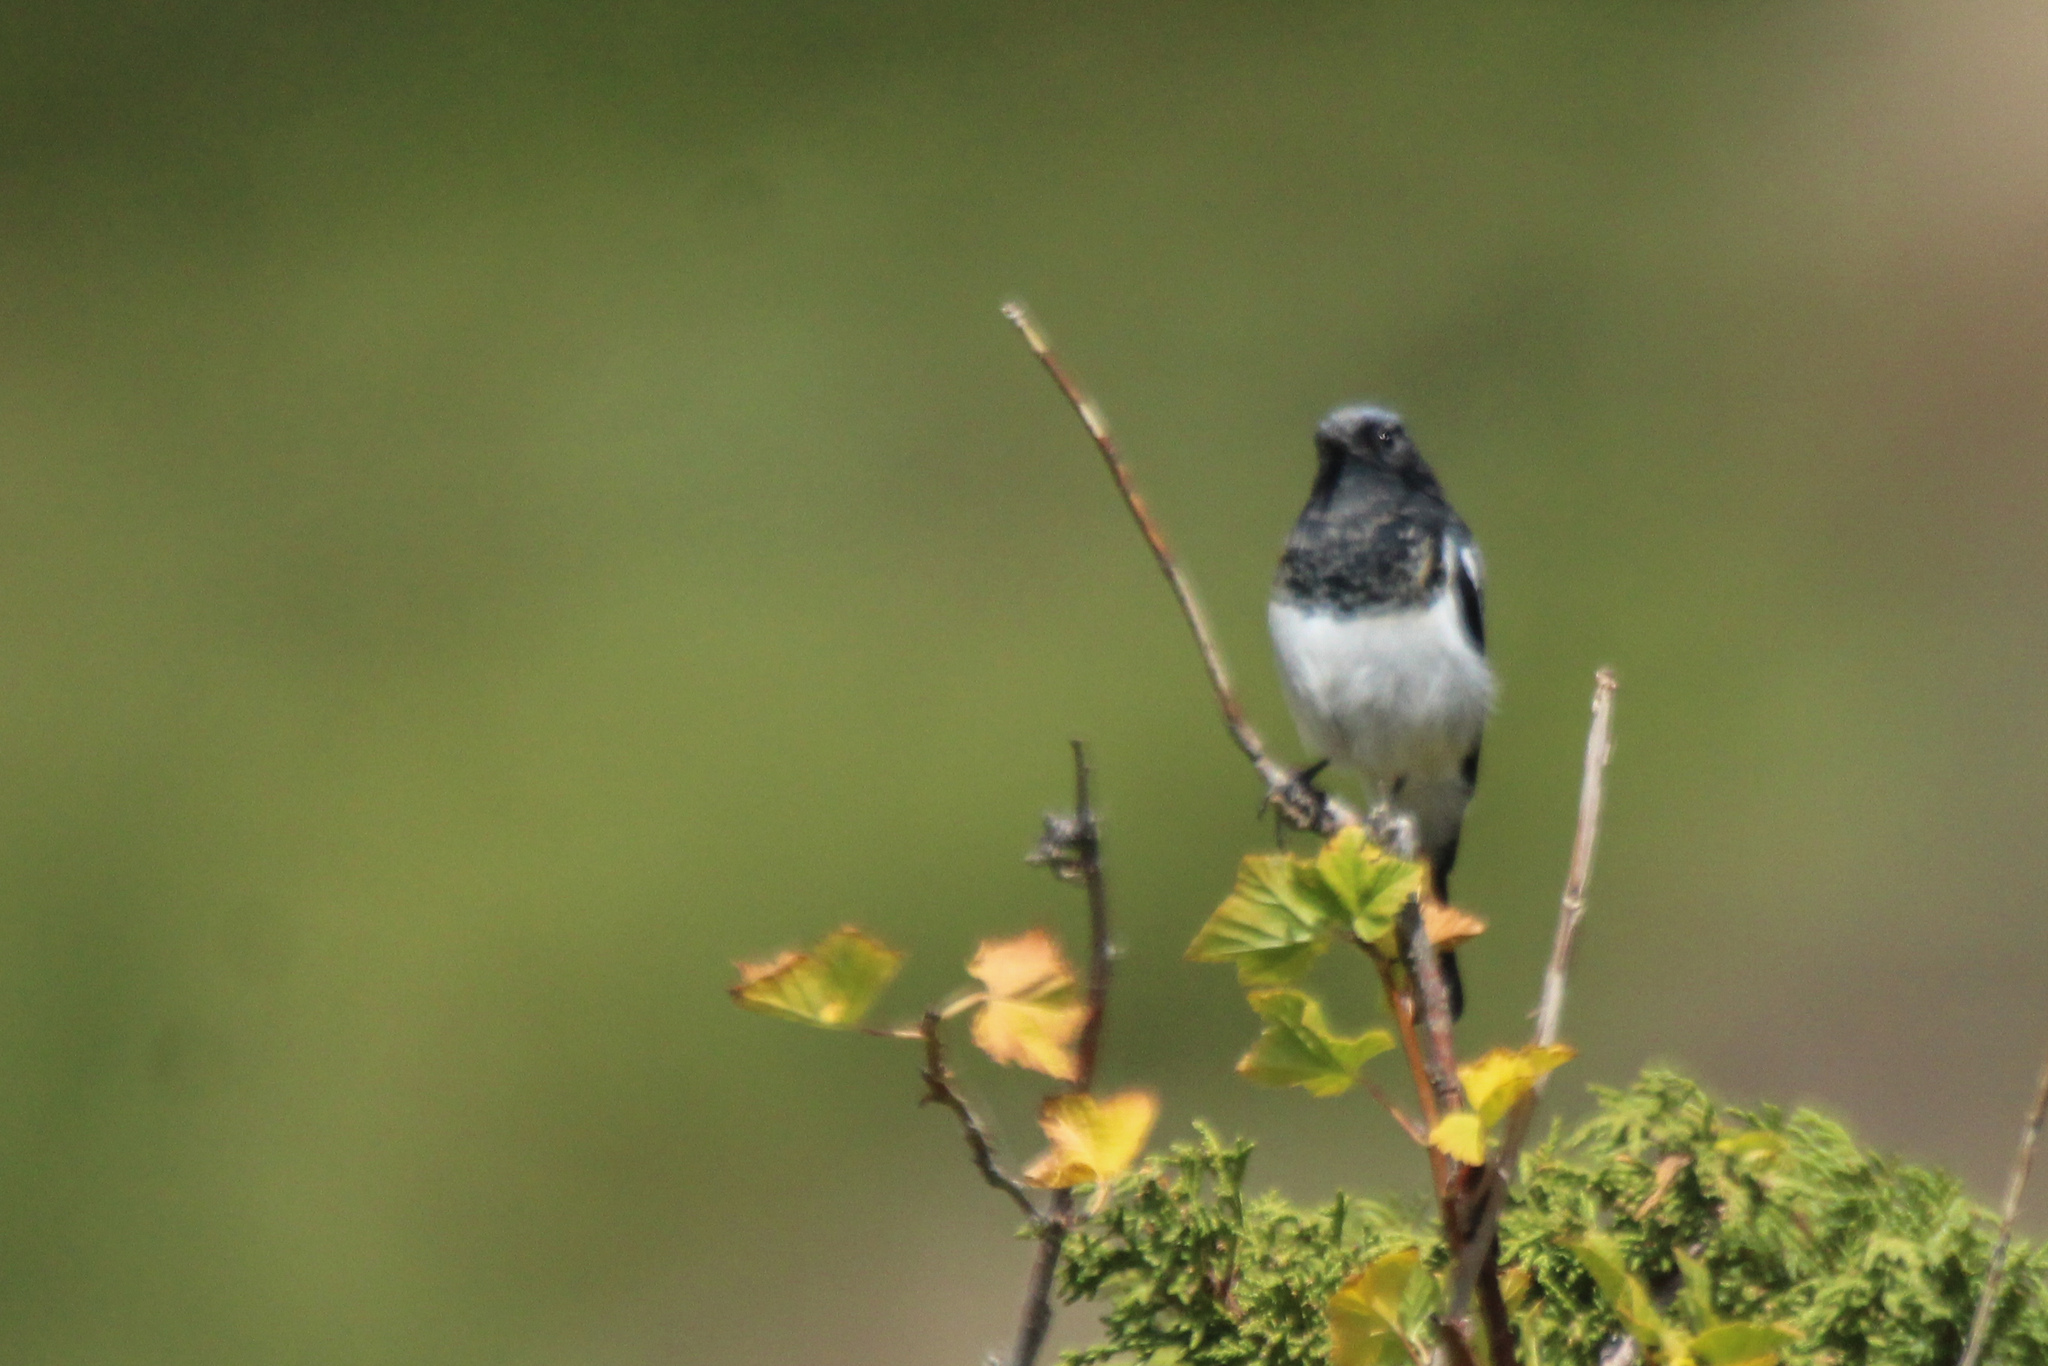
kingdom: Animalia
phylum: Chordata
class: Aves
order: Passeriformes
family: Muscicapidae
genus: Phoenicurus
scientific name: Phoenicurus coeruleocephala
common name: Blue-capped redstart
